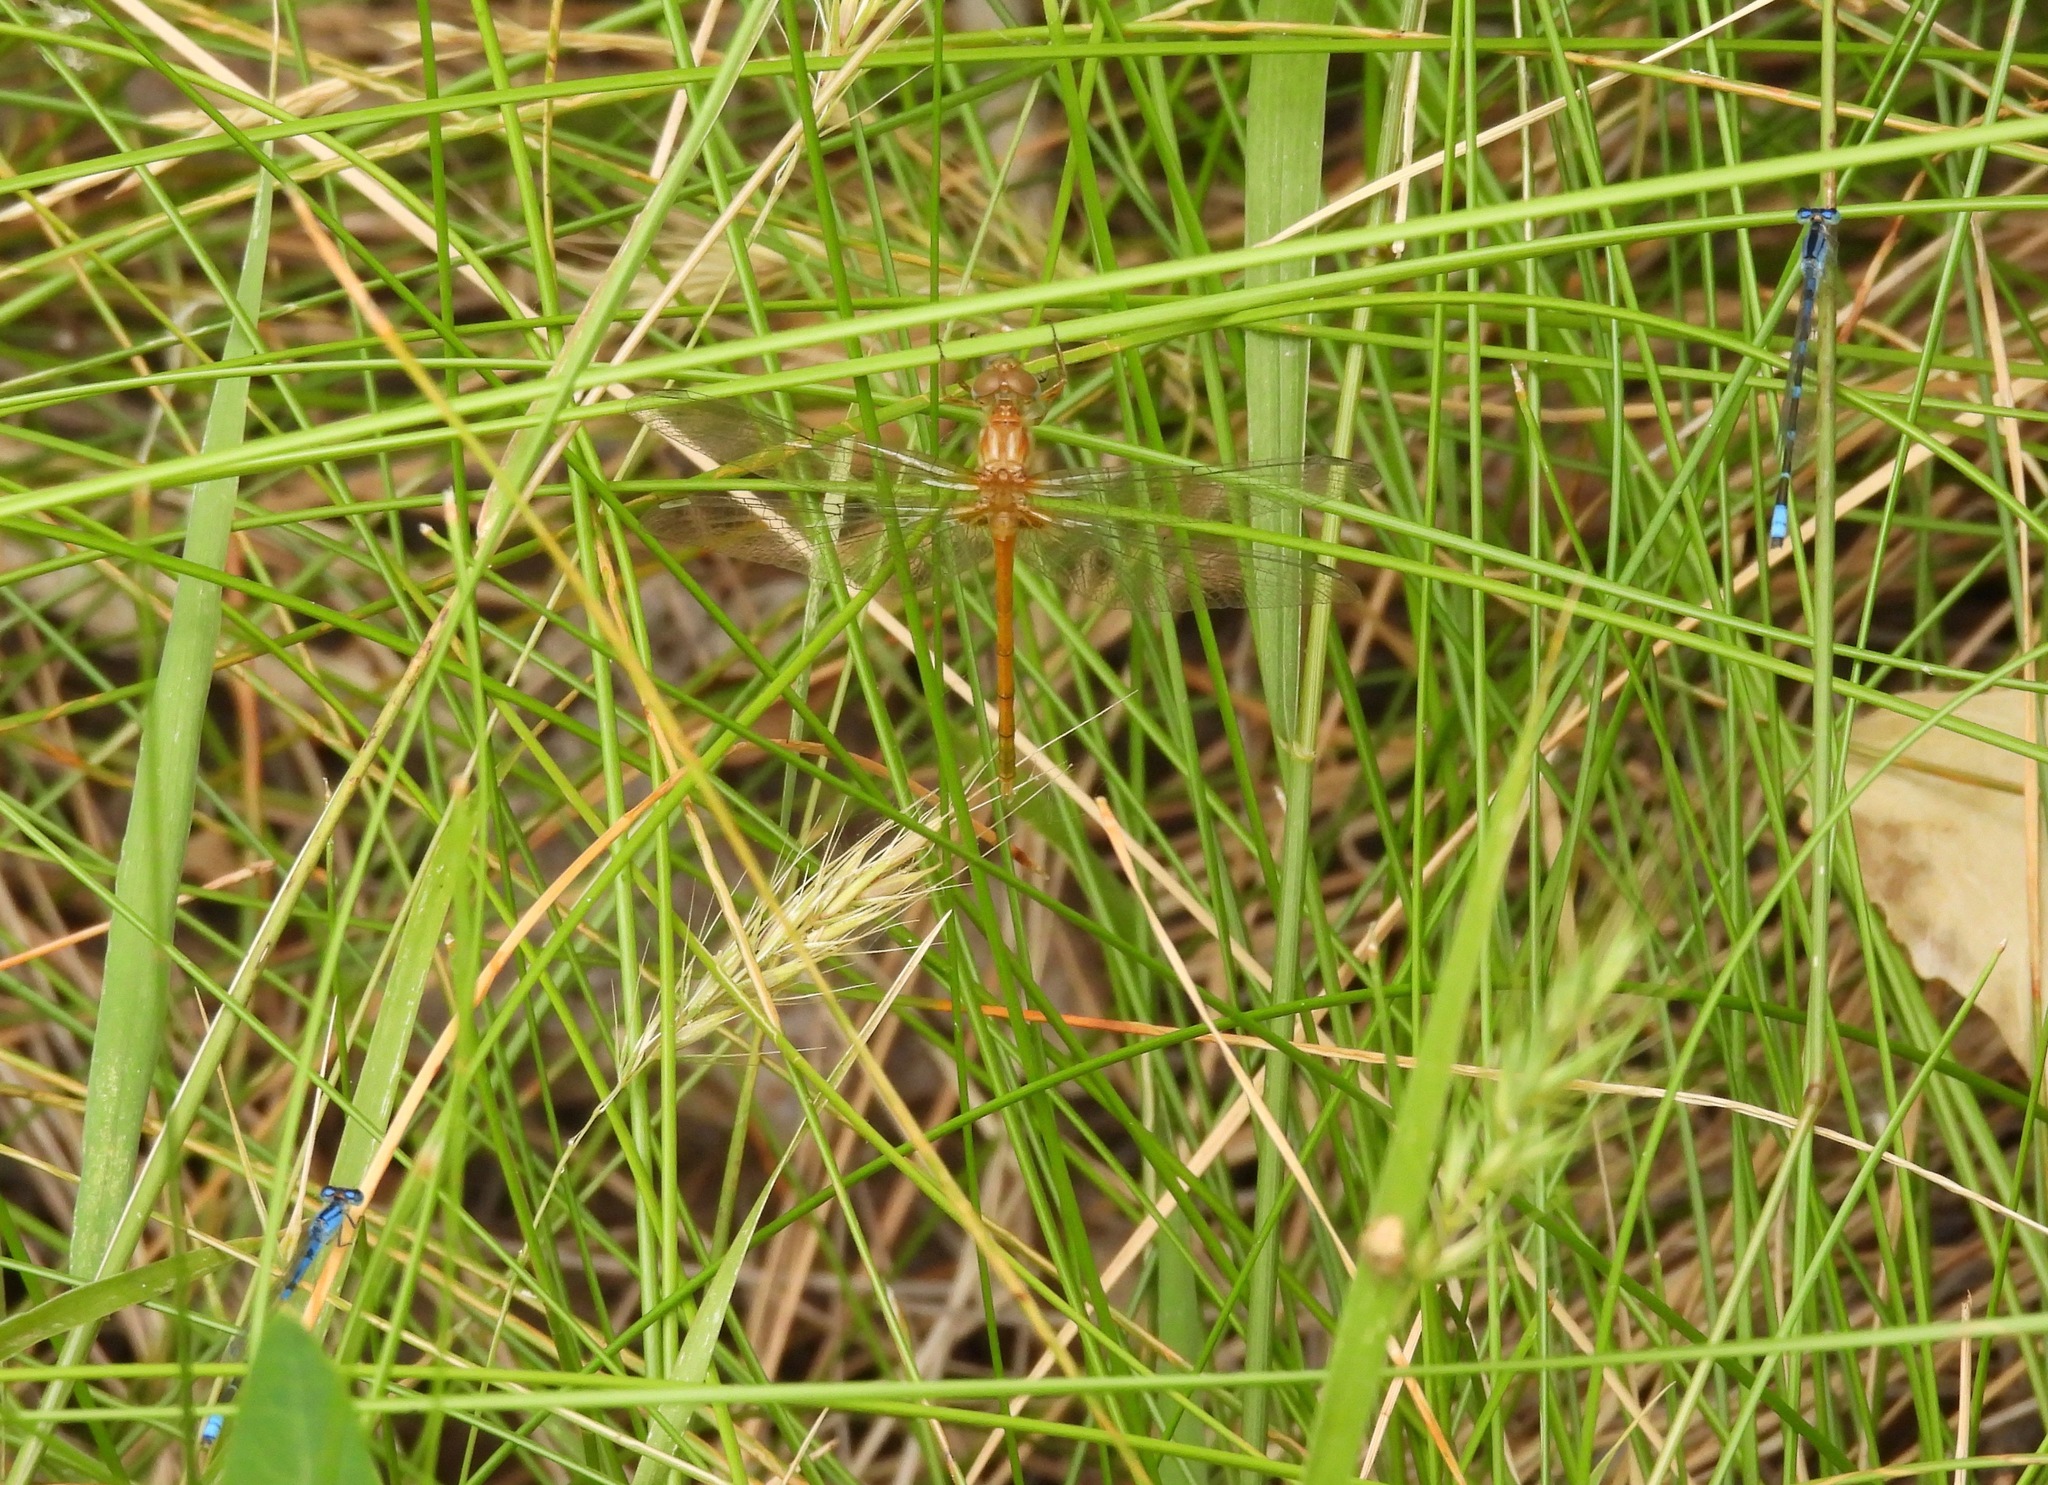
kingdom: Animalia
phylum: Arthropoda
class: Insecta
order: Odonata
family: Libellulidae
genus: Sympetrum
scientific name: Sympetrum vicinum
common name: Autumn meadowhawk
